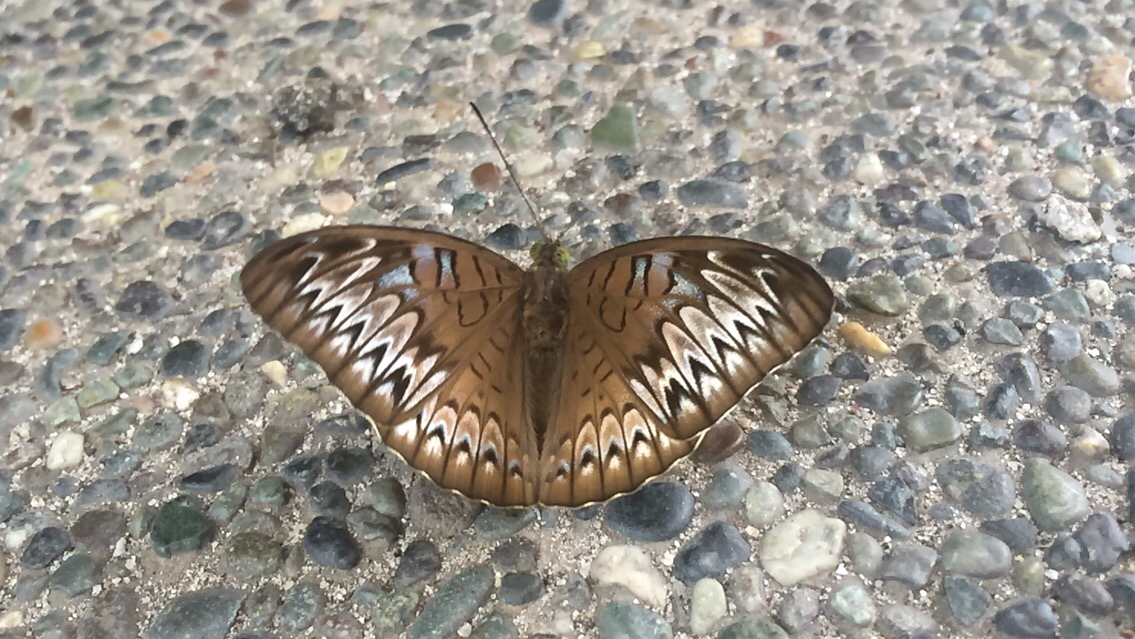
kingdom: Animalia
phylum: Arthropoda
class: Insecta
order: Lepidoptera
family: Nymphalidae
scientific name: Nymphalidae
